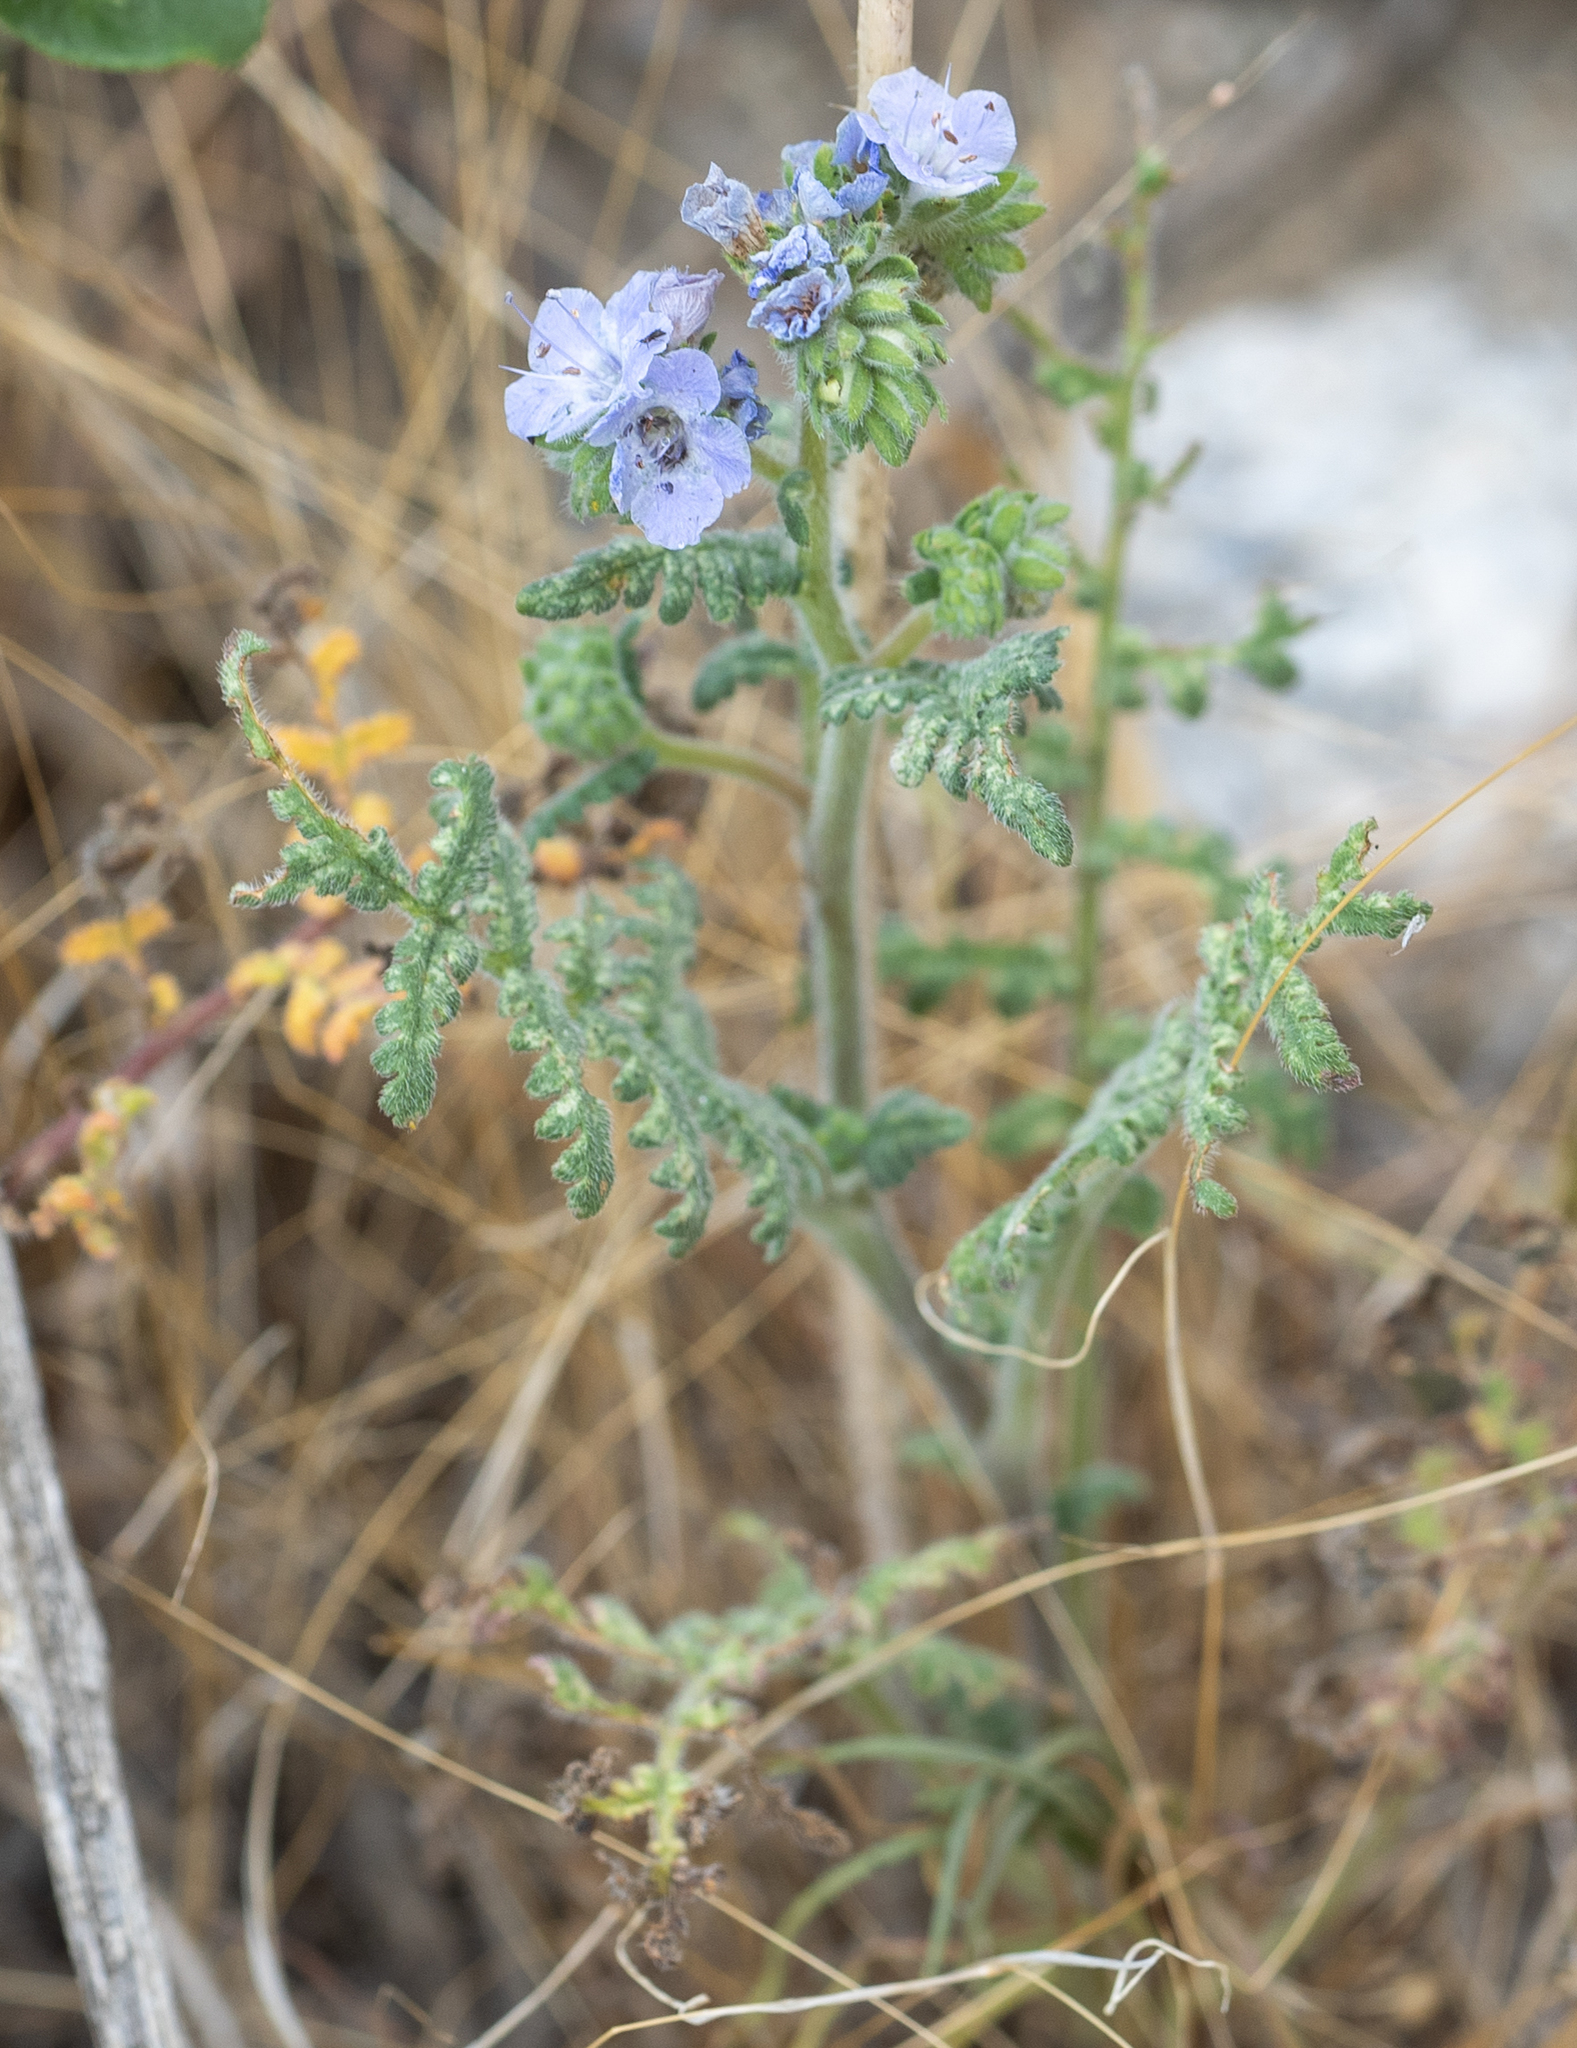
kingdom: Plantae
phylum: Tracheophyta
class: Magnoliopsida
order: Boraginales
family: Hydrophyllaceae
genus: Phacelia
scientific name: Phacelia distans
